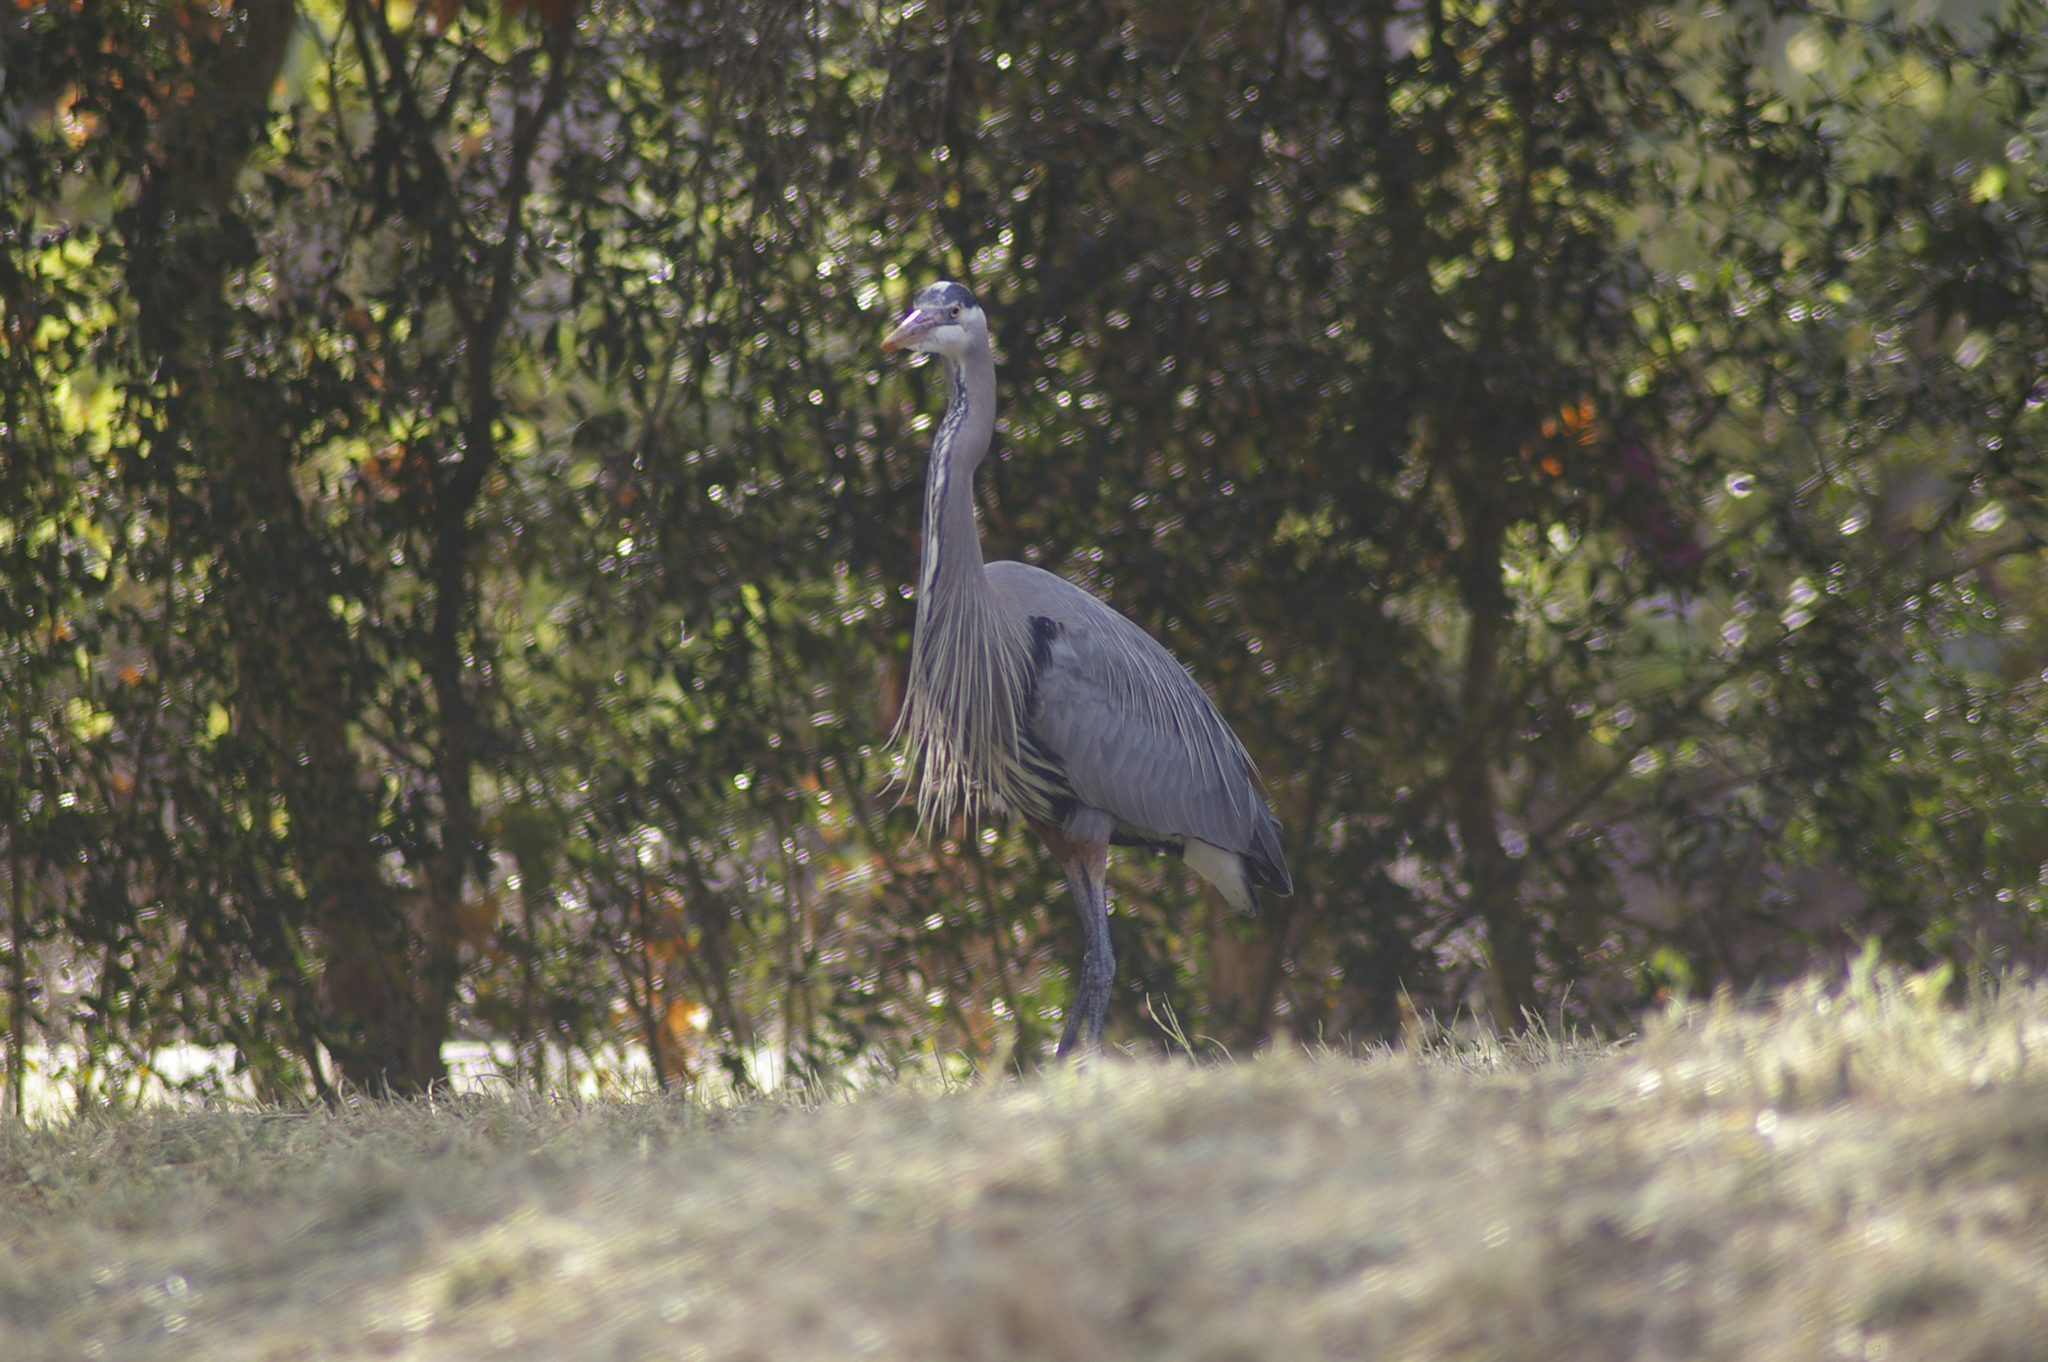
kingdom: Animalia
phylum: Chordata
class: Aves
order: Pelecaniformes
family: Ardeidae
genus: Ardea
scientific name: Ardea herodias
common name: Great blue heron
